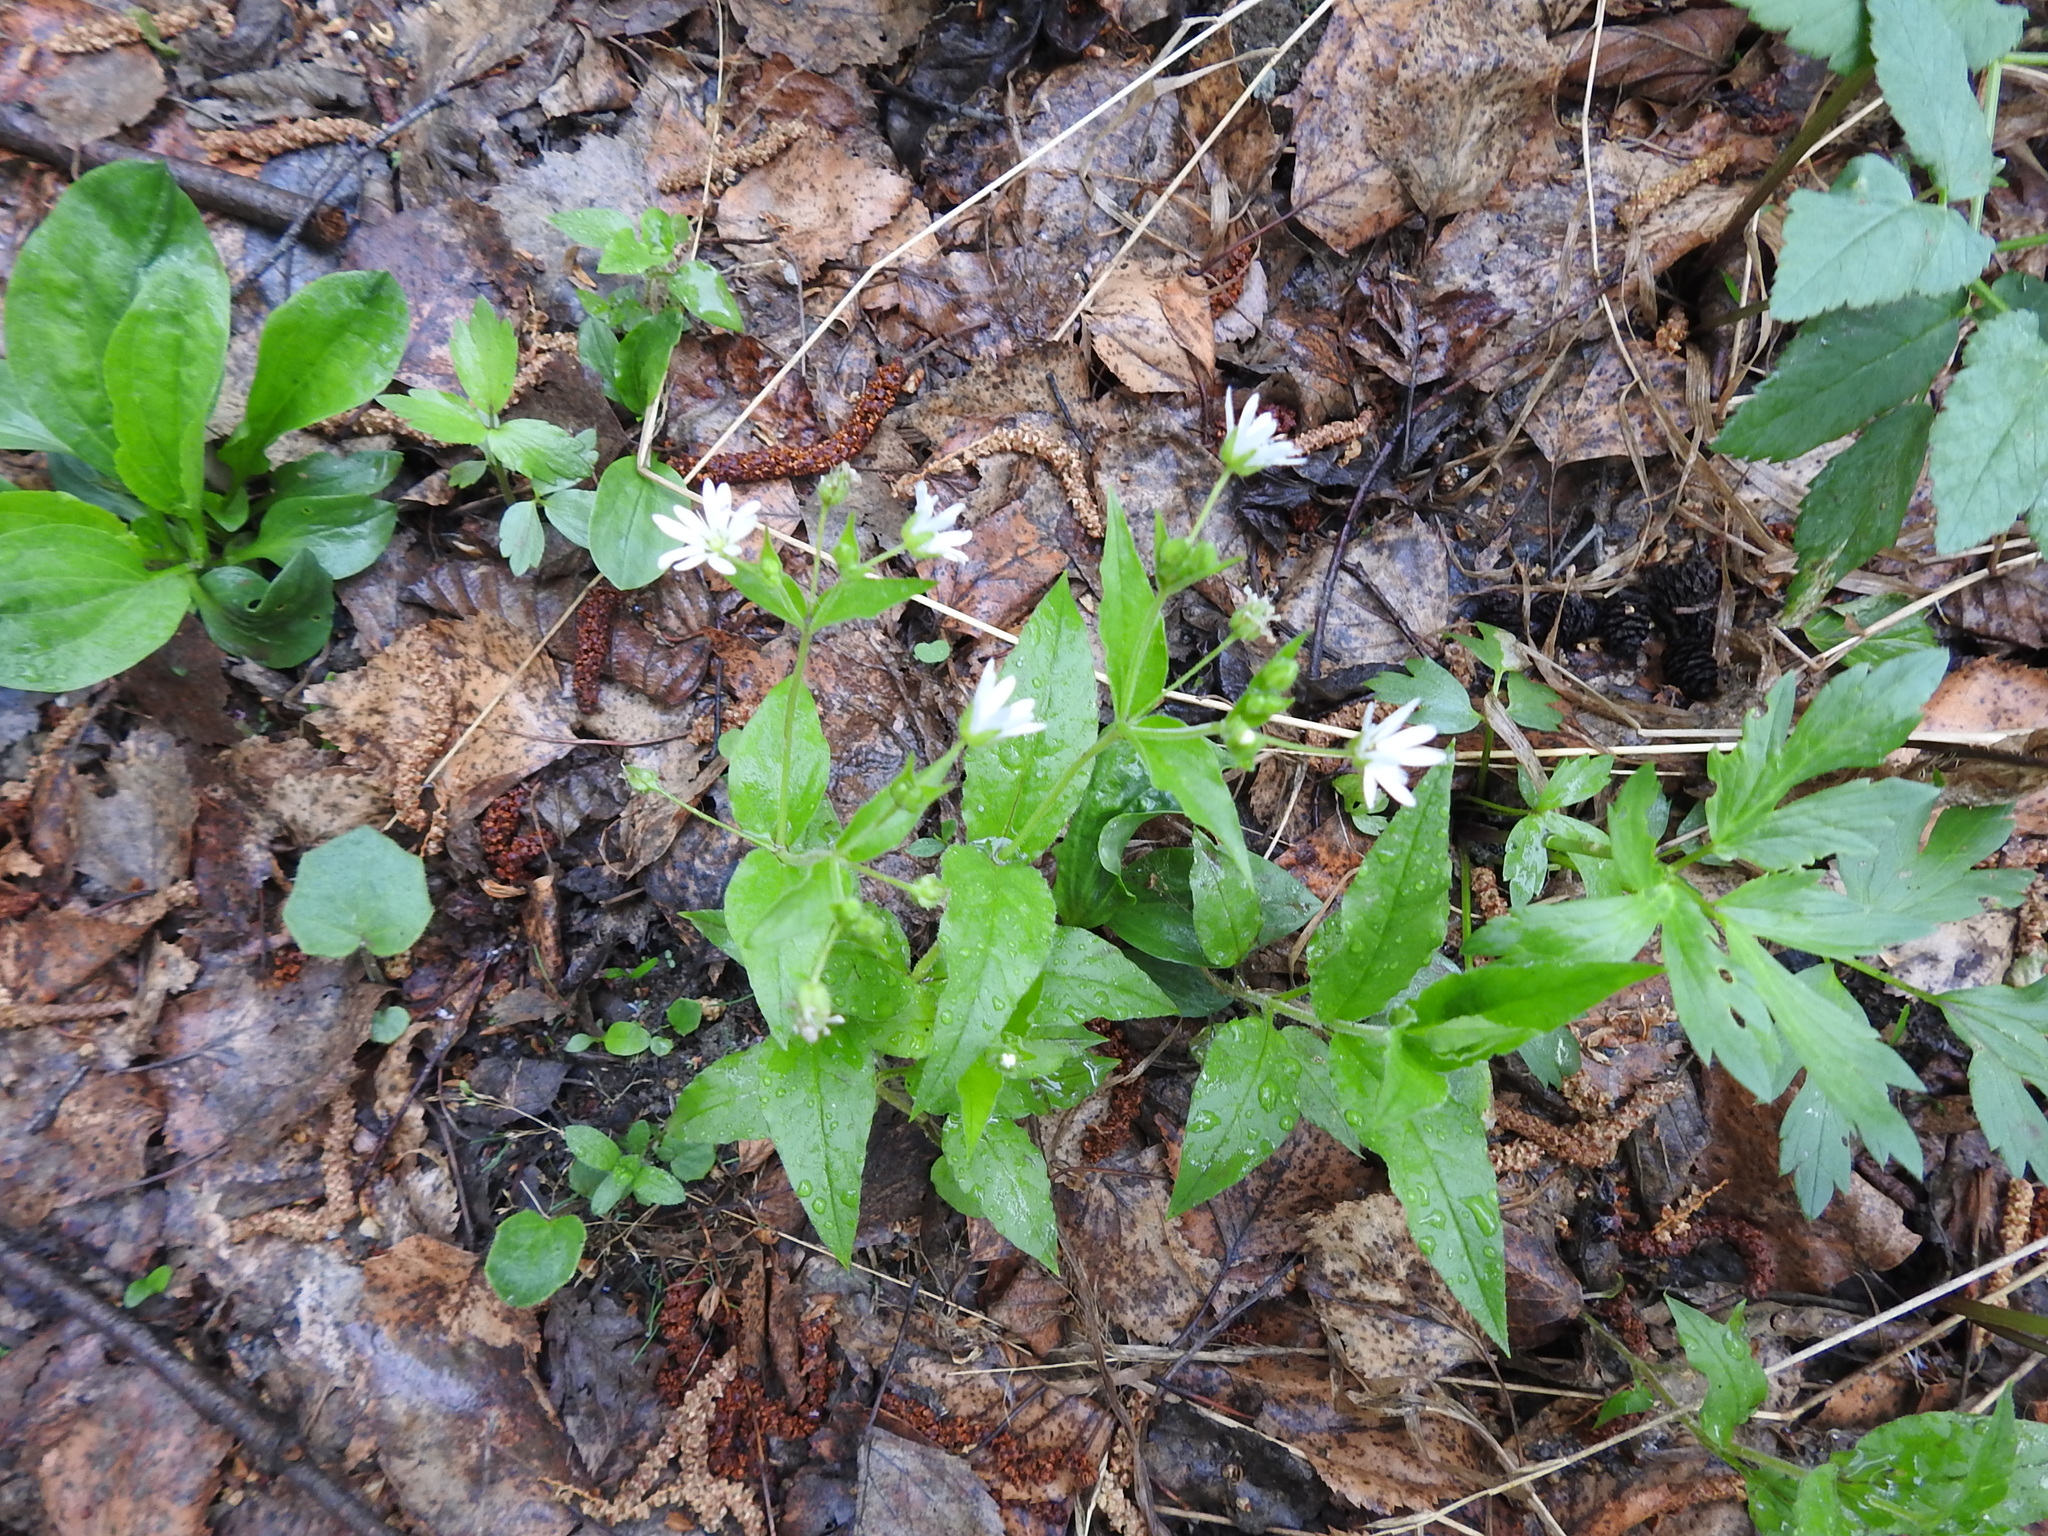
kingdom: Plantae
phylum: Tracheophyta
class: Magnoliopsida
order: Caryophyllales
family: Caryophyllaceae
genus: Stellaria
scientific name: Stellaria nemorum
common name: Wood stitchwort
